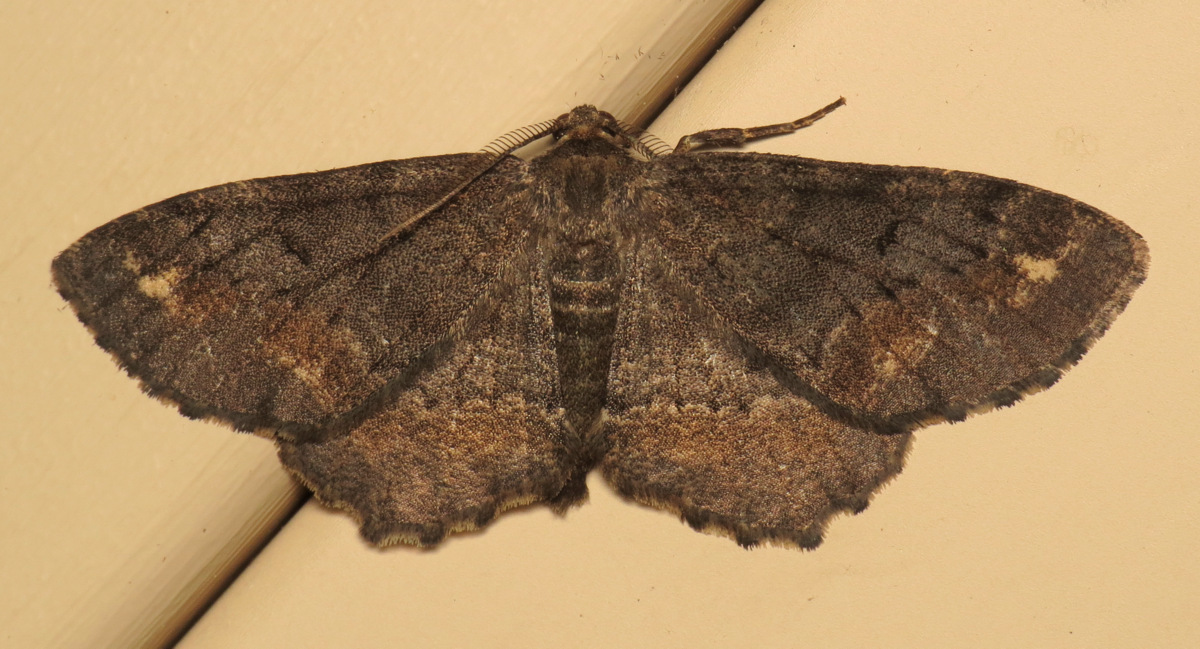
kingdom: Animalia
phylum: Arthropoda
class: Insecta
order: Lepidoptera
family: Geometridae
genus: Hypagyrtis
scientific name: Hypagyrtis unipunctata
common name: One-spotted variant
